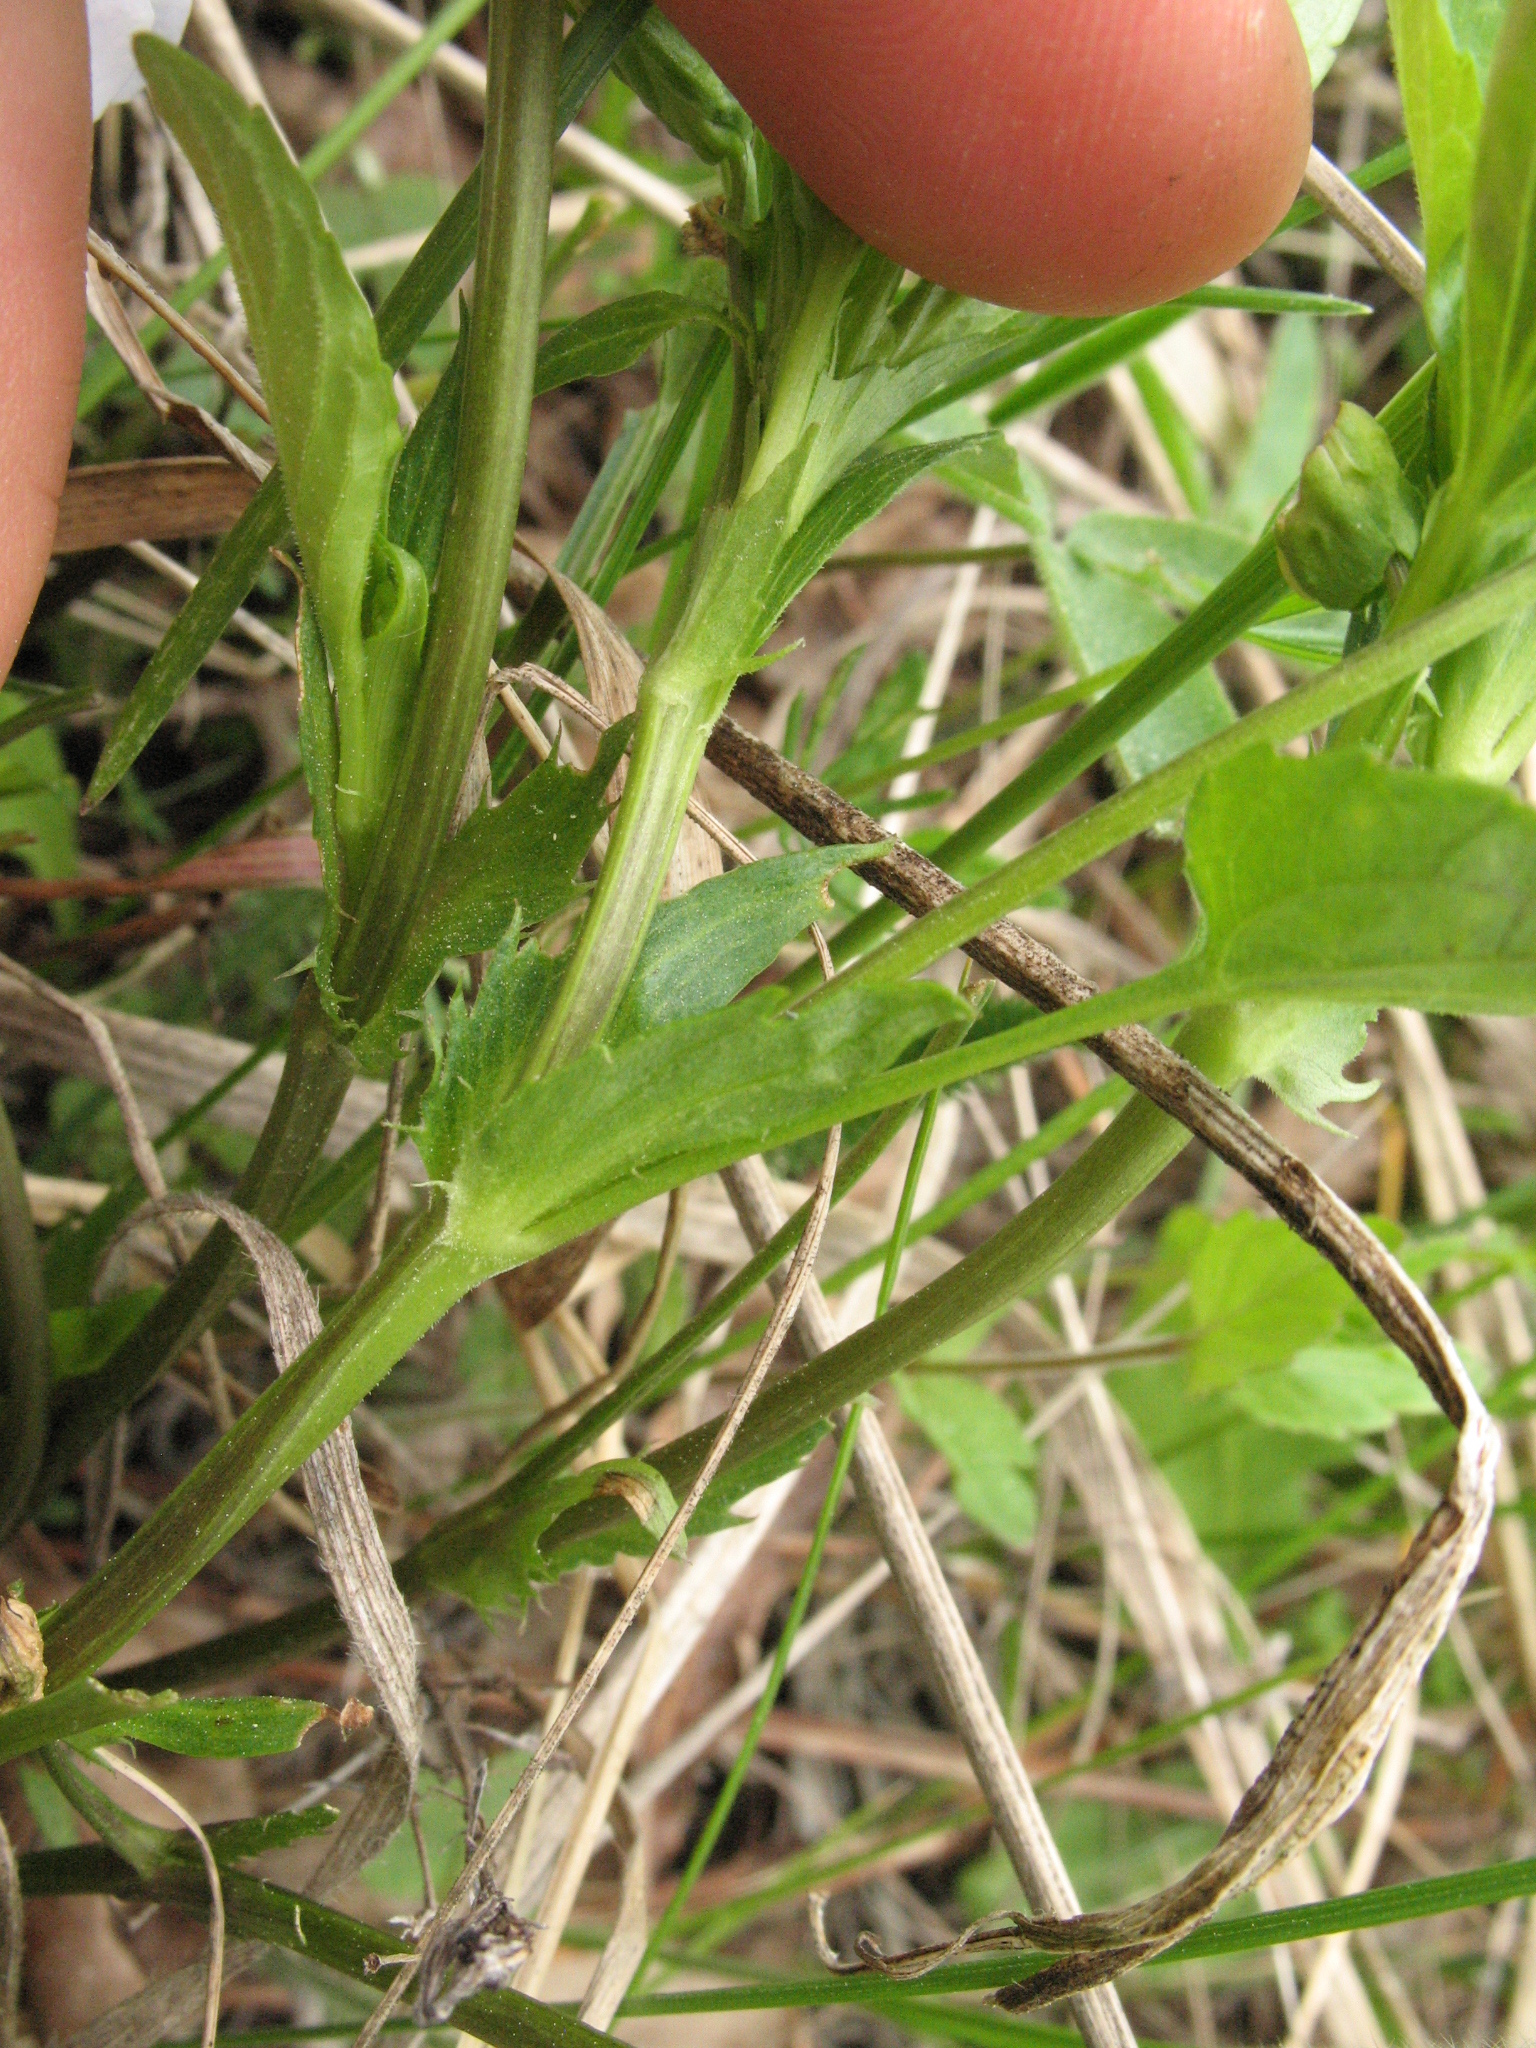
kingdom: Plantae
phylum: Tracheophyta
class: Magnoliopsida
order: Malpighiales
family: Violaceae
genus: Viola
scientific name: Viola pumila
